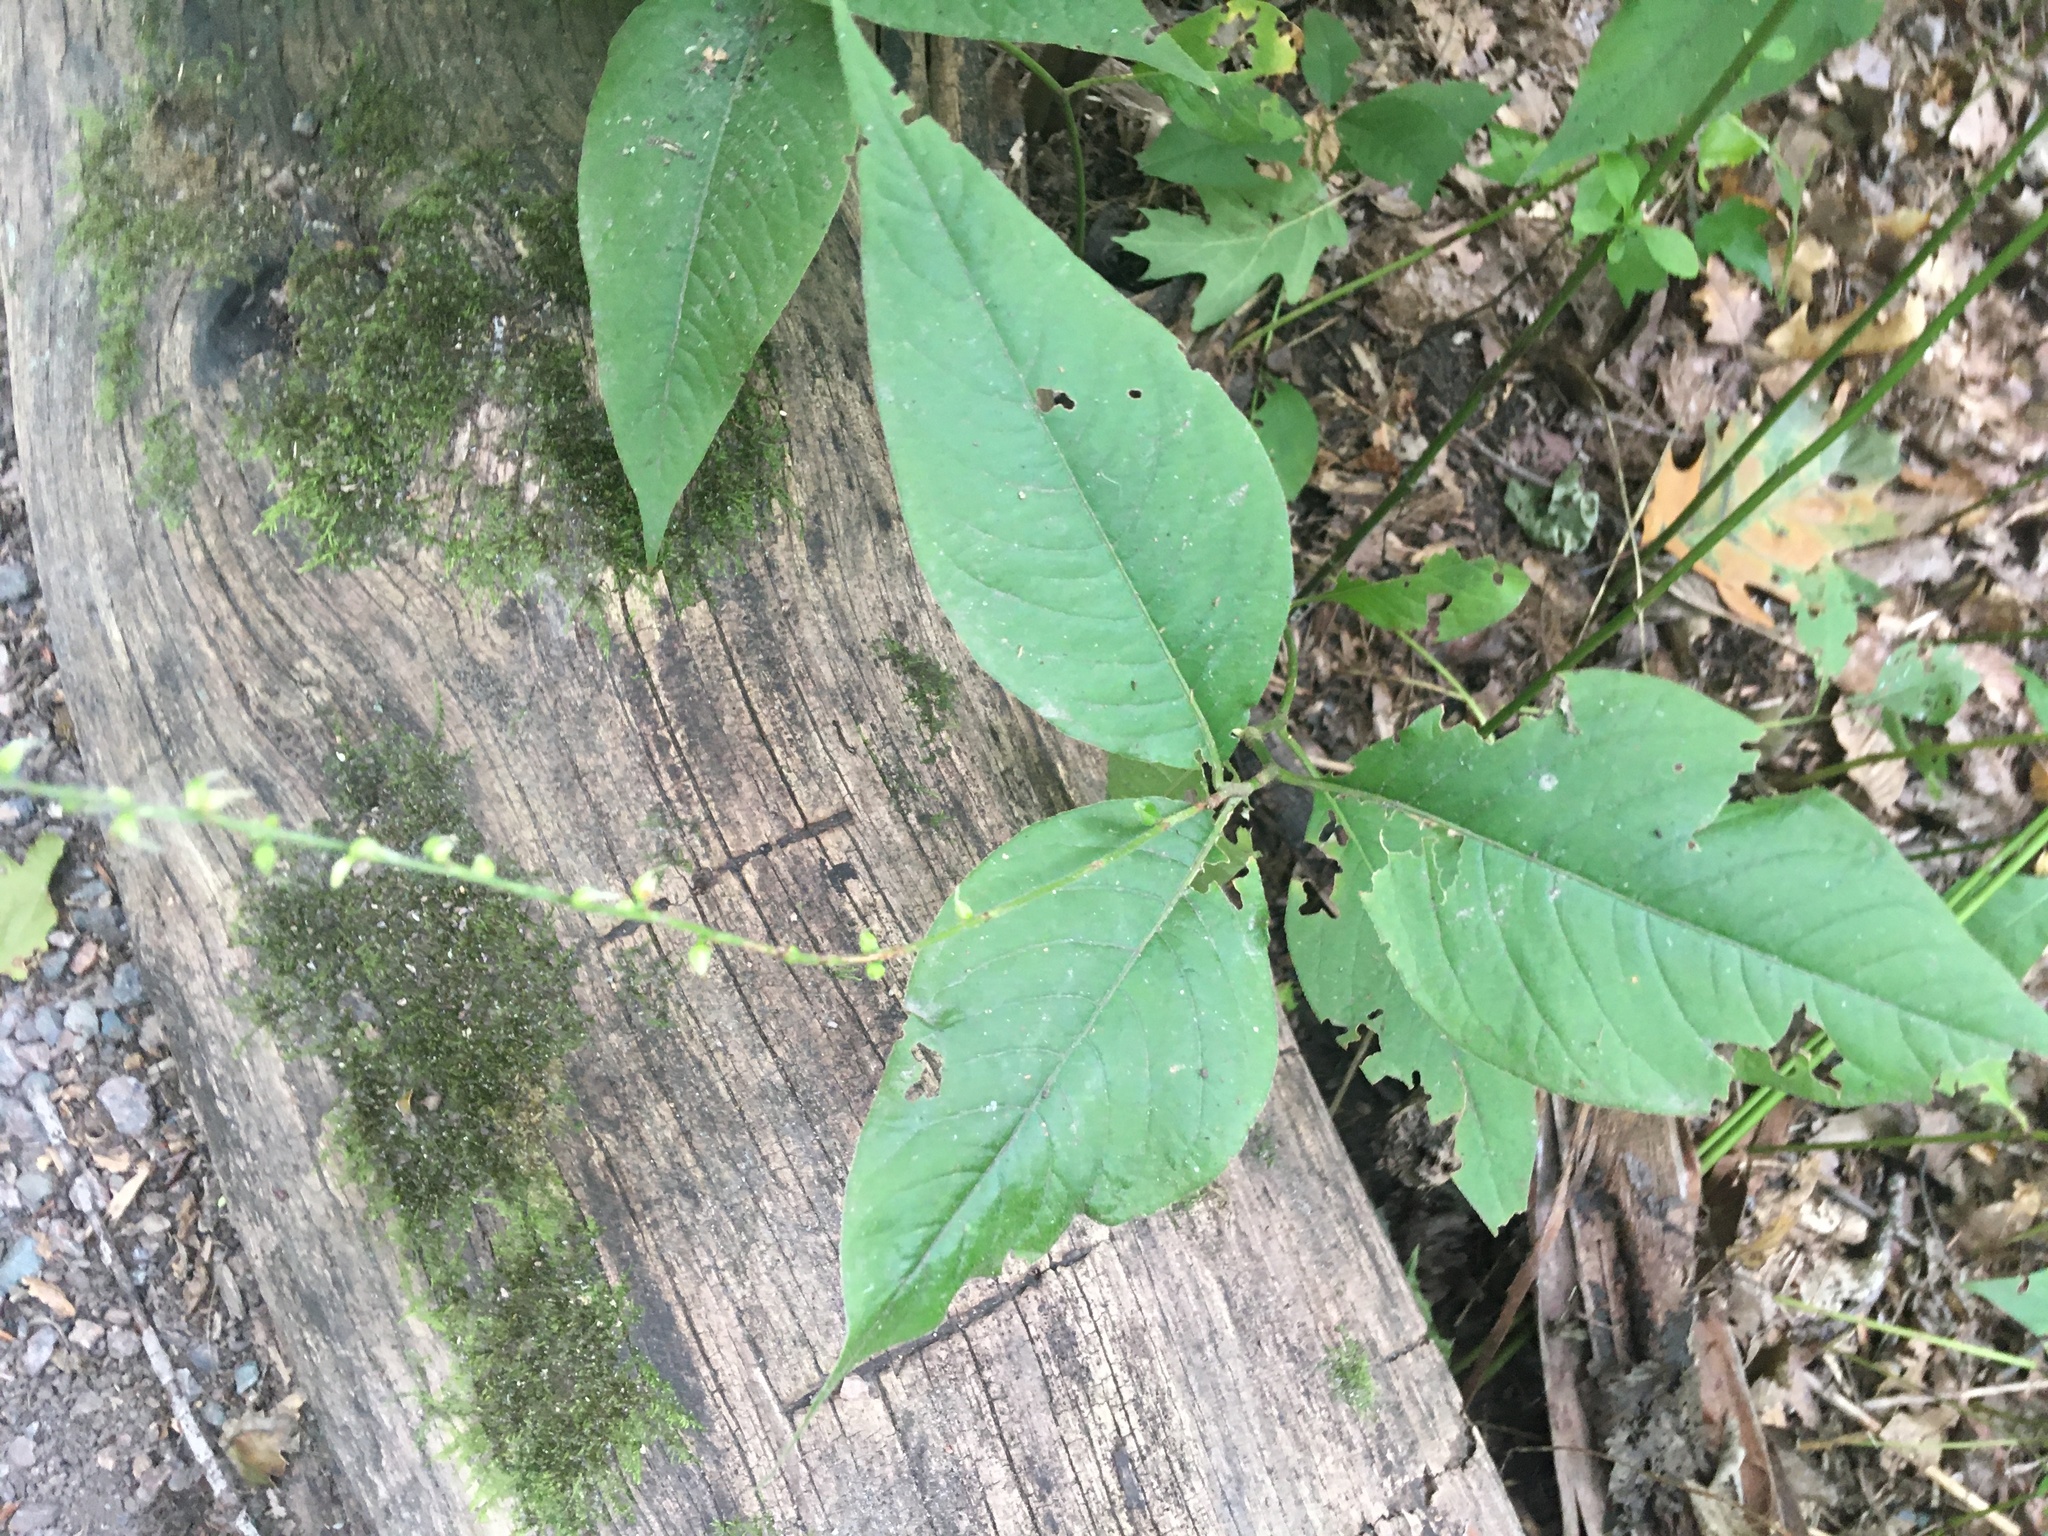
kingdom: Plantae
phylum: Tracheophyta
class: Magnoliopsida
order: Caryophyllales
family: Polygonaceae
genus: Persicaria
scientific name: Persicaria virginiana
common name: Jumpseed
